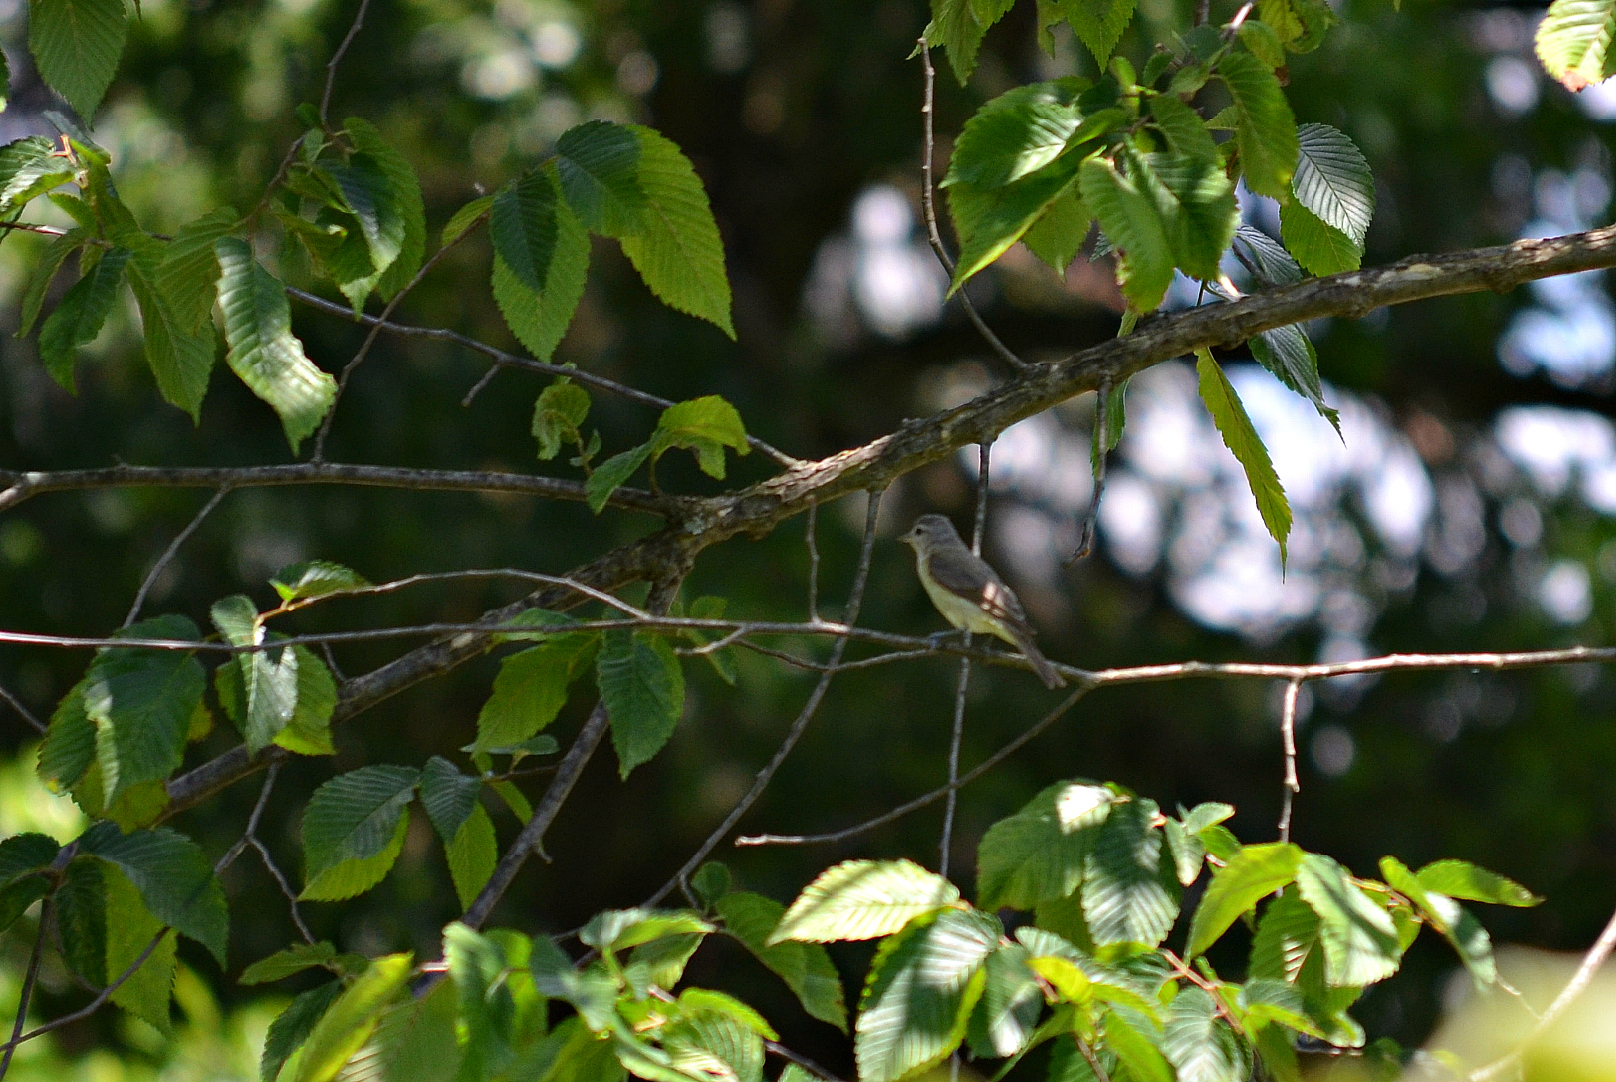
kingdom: Animalia
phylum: Chordata
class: Aves
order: Passeriformes
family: Vireonidae
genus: Vireo
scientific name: Vireo gilvus
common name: Warbling vireo
